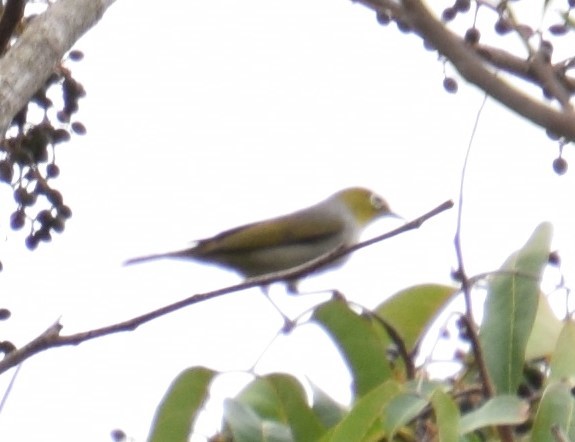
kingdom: Animalia
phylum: Chordata
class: Aves
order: Passeriformes
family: Zosteropidae
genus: Zosterops
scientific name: Zosterops lateralis
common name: Silvereye
